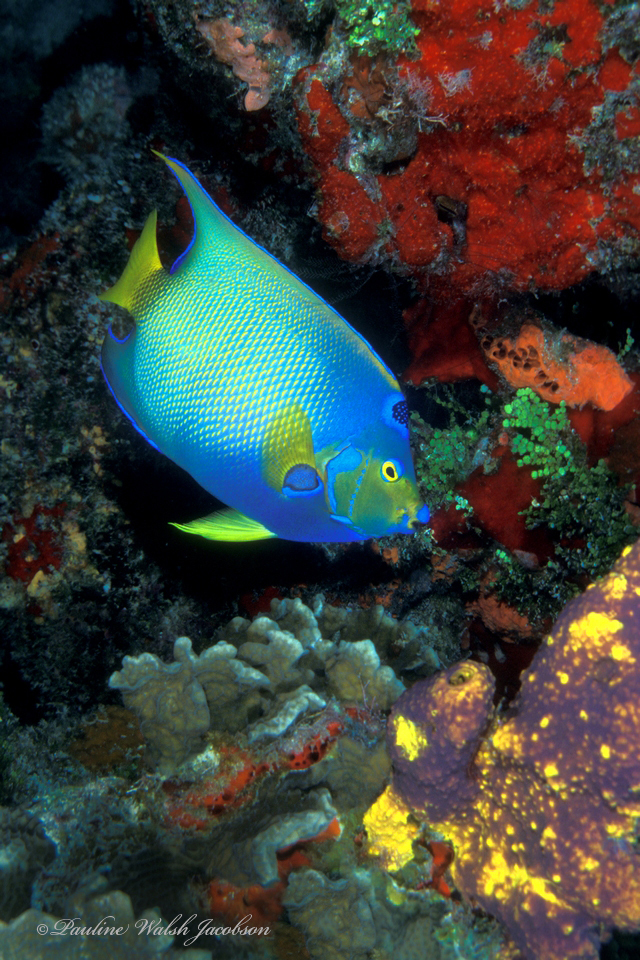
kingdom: Animalia
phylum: Chordata
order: Perciformes
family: Pomacanthidae
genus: Holacanthus
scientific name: Holacanthus ciliaris
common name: Queen angelfish
